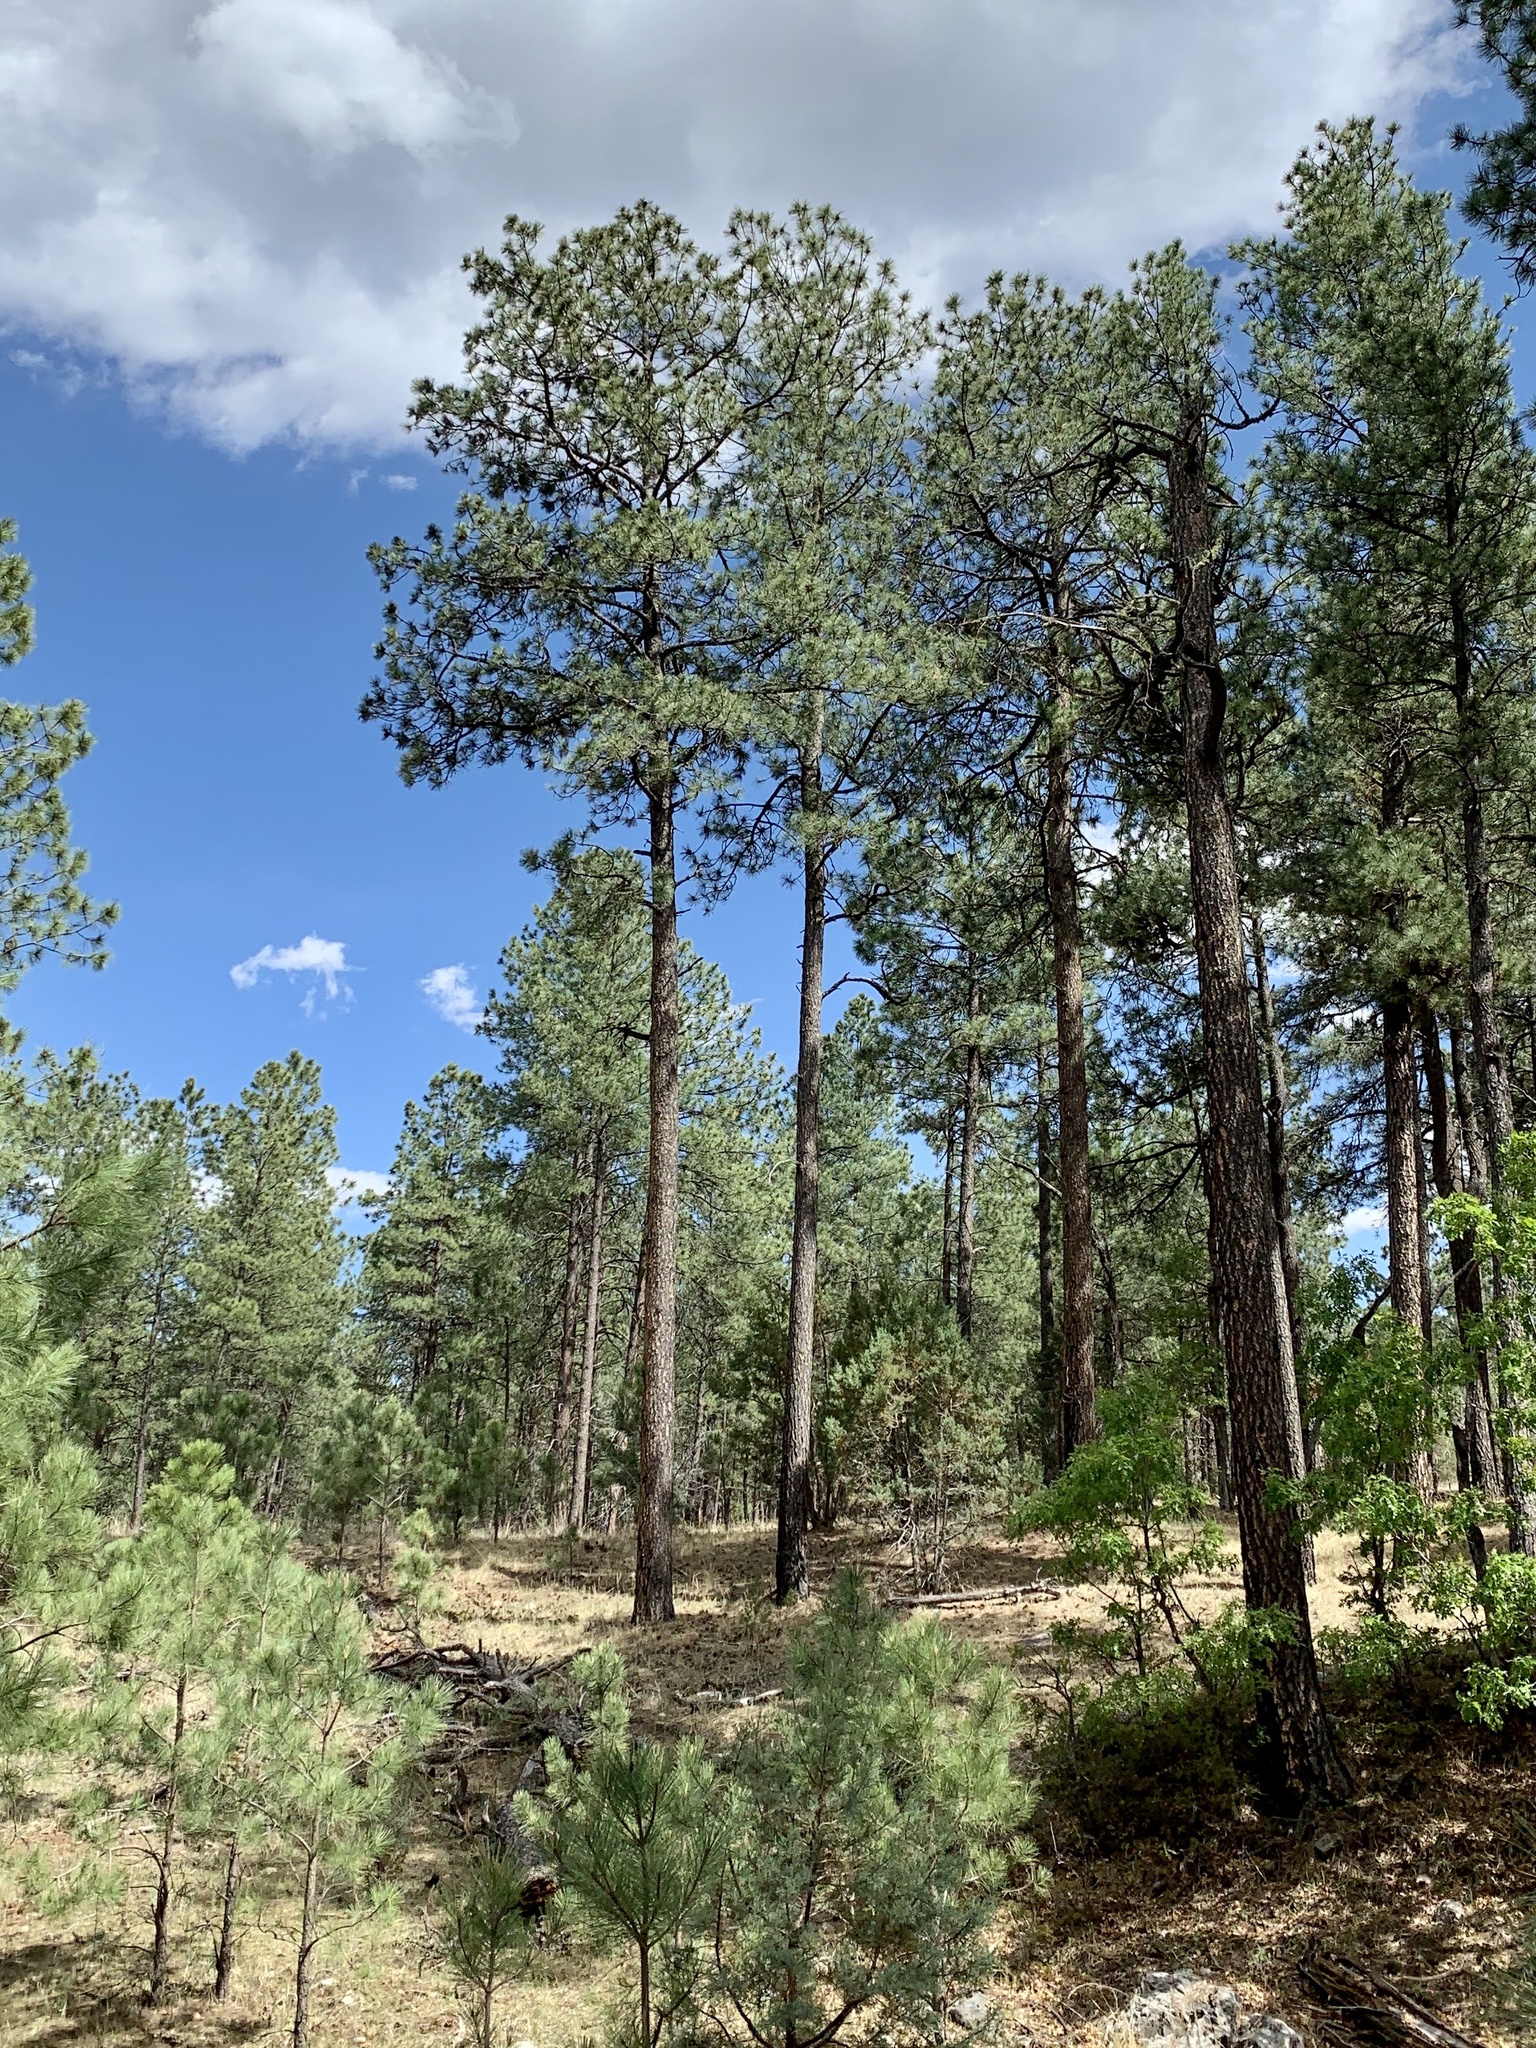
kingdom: Plantae
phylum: Tracheophyta
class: Pinopsida
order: Pinales
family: Pinaceae
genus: Pinus
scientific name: Pinus ponderosa
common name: Western yellow-pine
